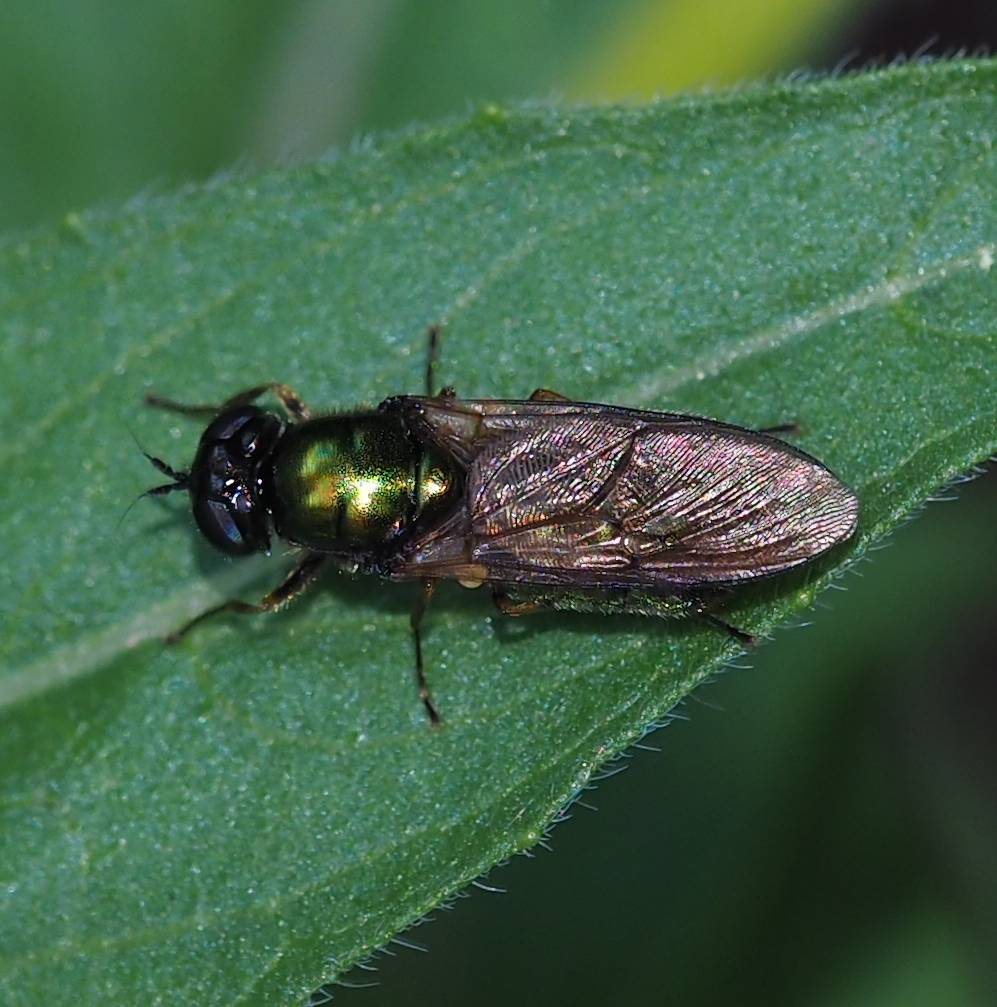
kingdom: Animalia
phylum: Arthropoda
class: Insecta
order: Diptera
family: Stratiomyidae
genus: Chloromyia
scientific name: Chloromyia formosa
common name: Soldier fly
